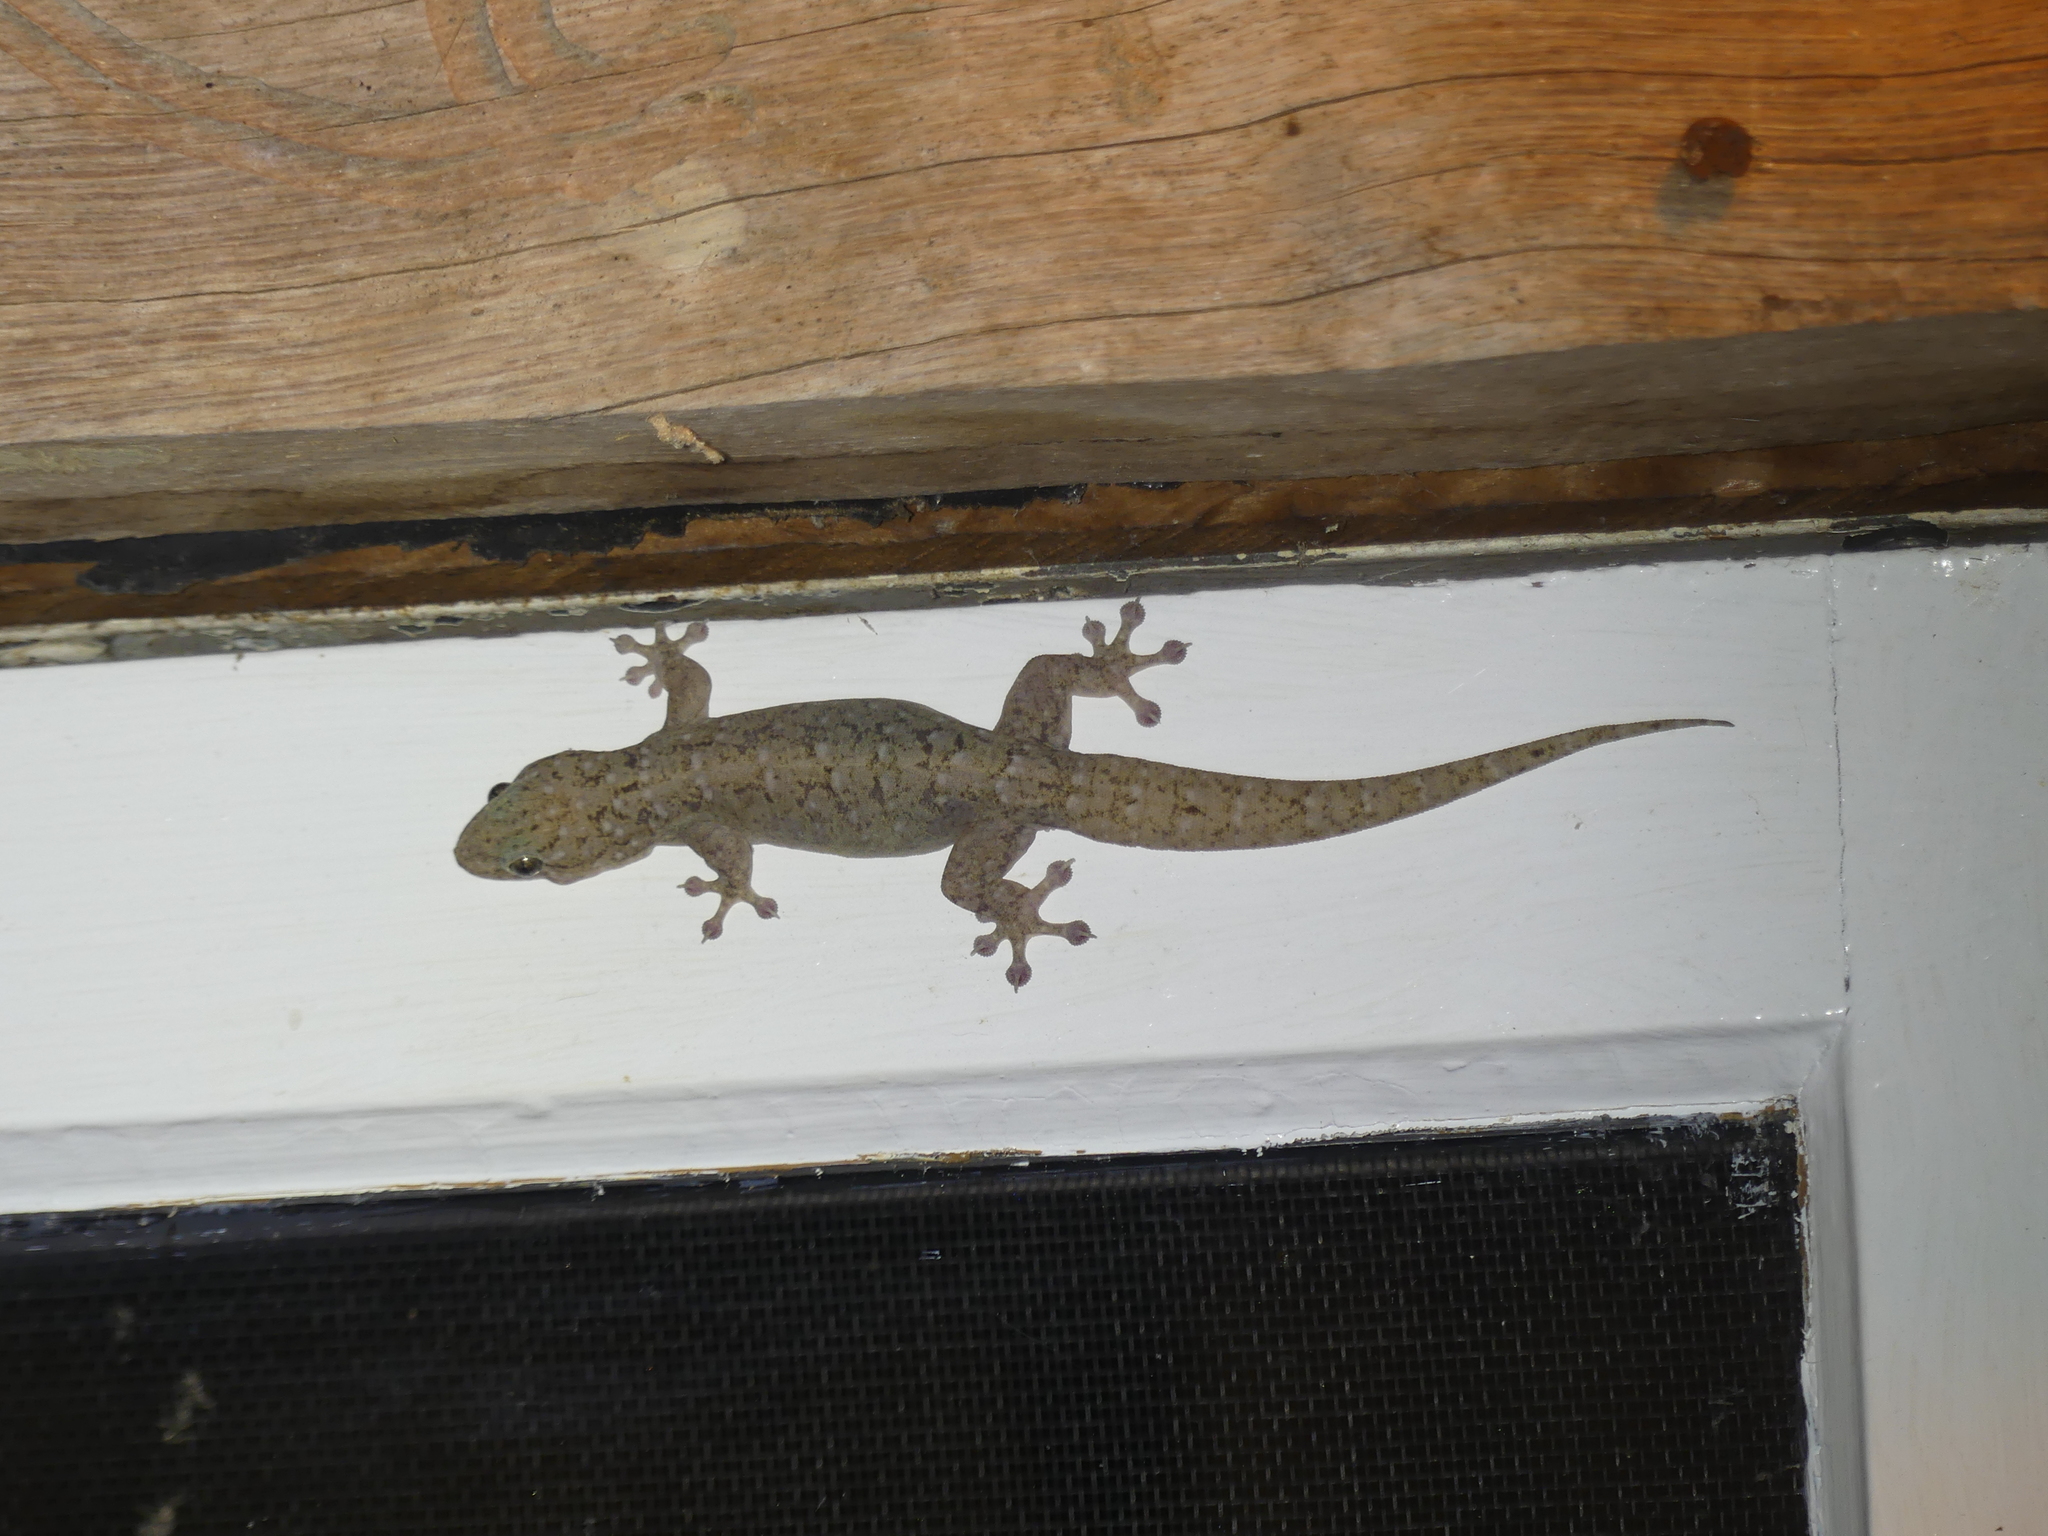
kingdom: Animalia
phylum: Chordata
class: Squamata
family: Gekkonidae
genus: Gehyra
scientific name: Gehyra dubia
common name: Dubious dtella
